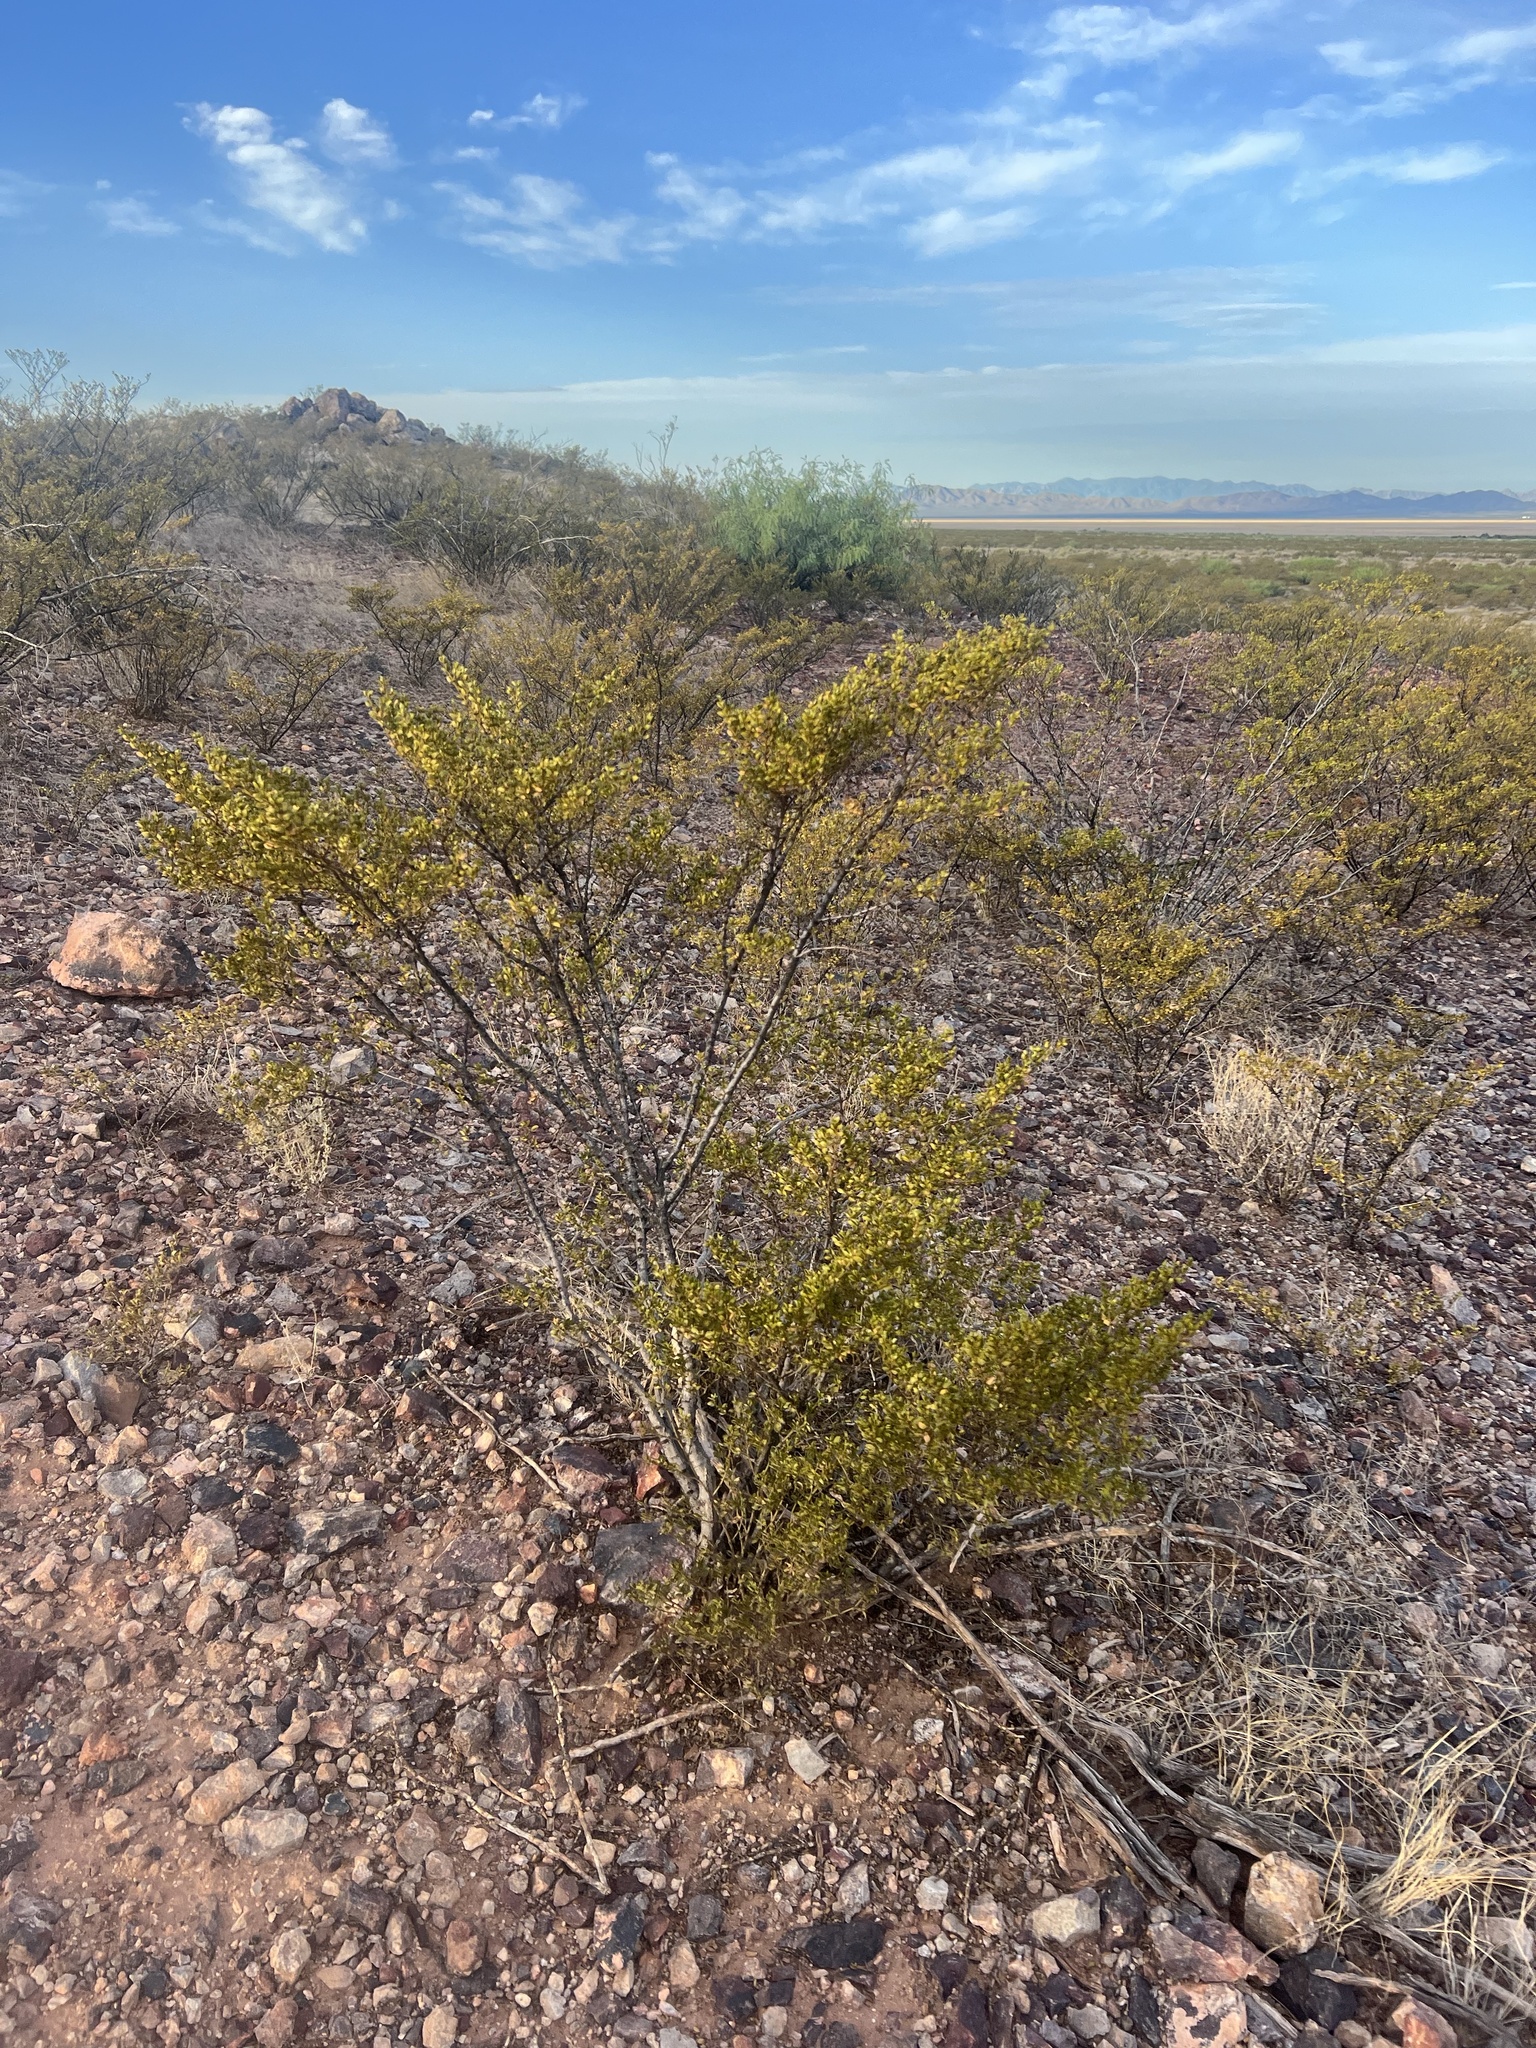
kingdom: Plantae
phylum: Tracheophyta
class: Magnoliopsida
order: Zygophyllales
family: Zygophyllaceae
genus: Larrea
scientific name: Larrea tridentata
